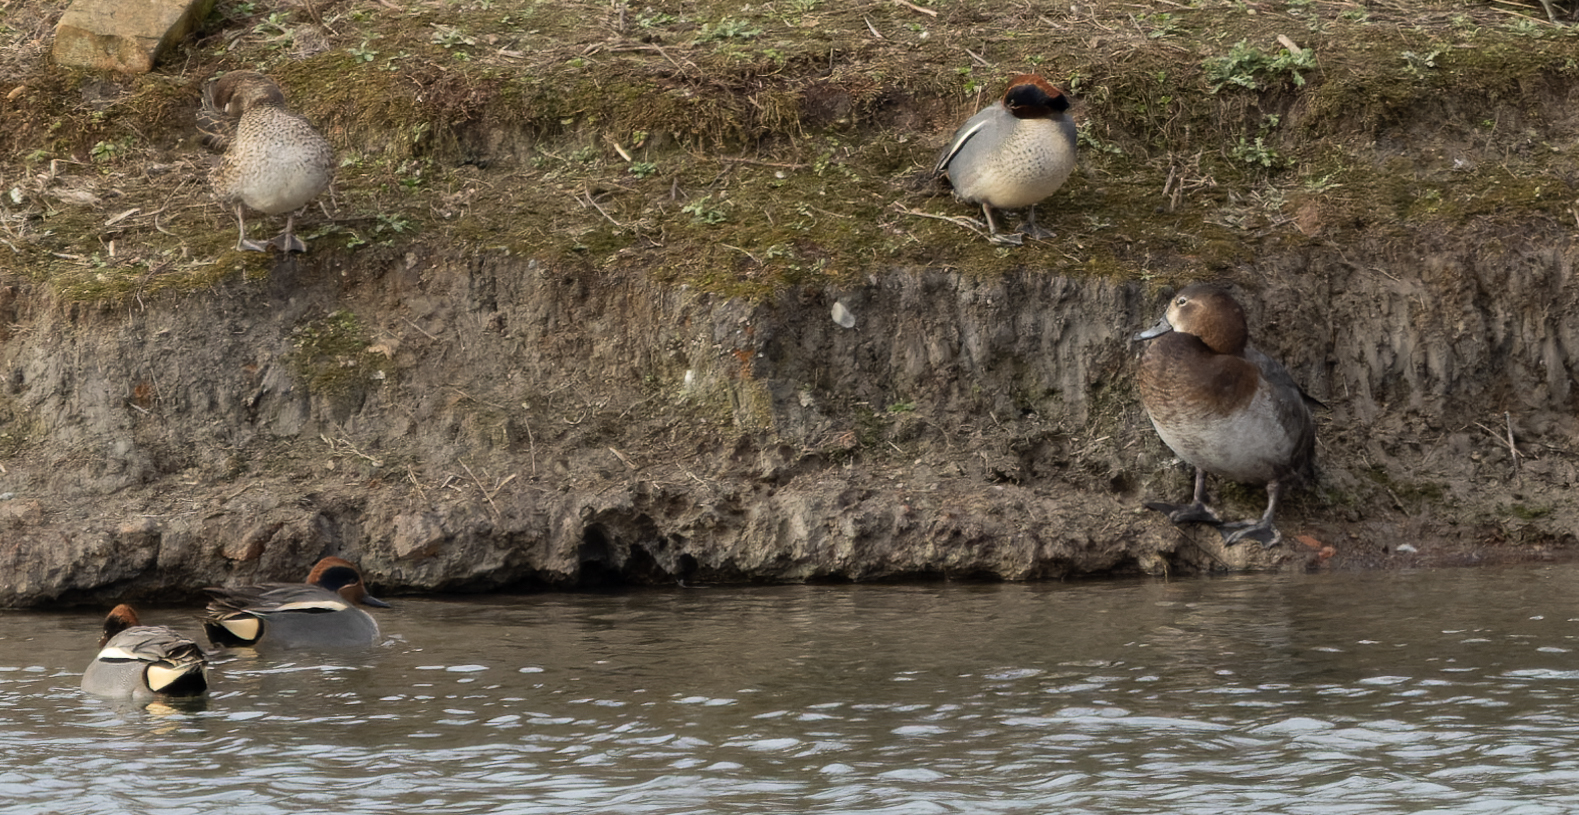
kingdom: Animalia
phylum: Chordata
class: Aves
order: Anseriformes
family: Anatidae
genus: Anas
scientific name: Anas crecca
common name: Eurasian teal
